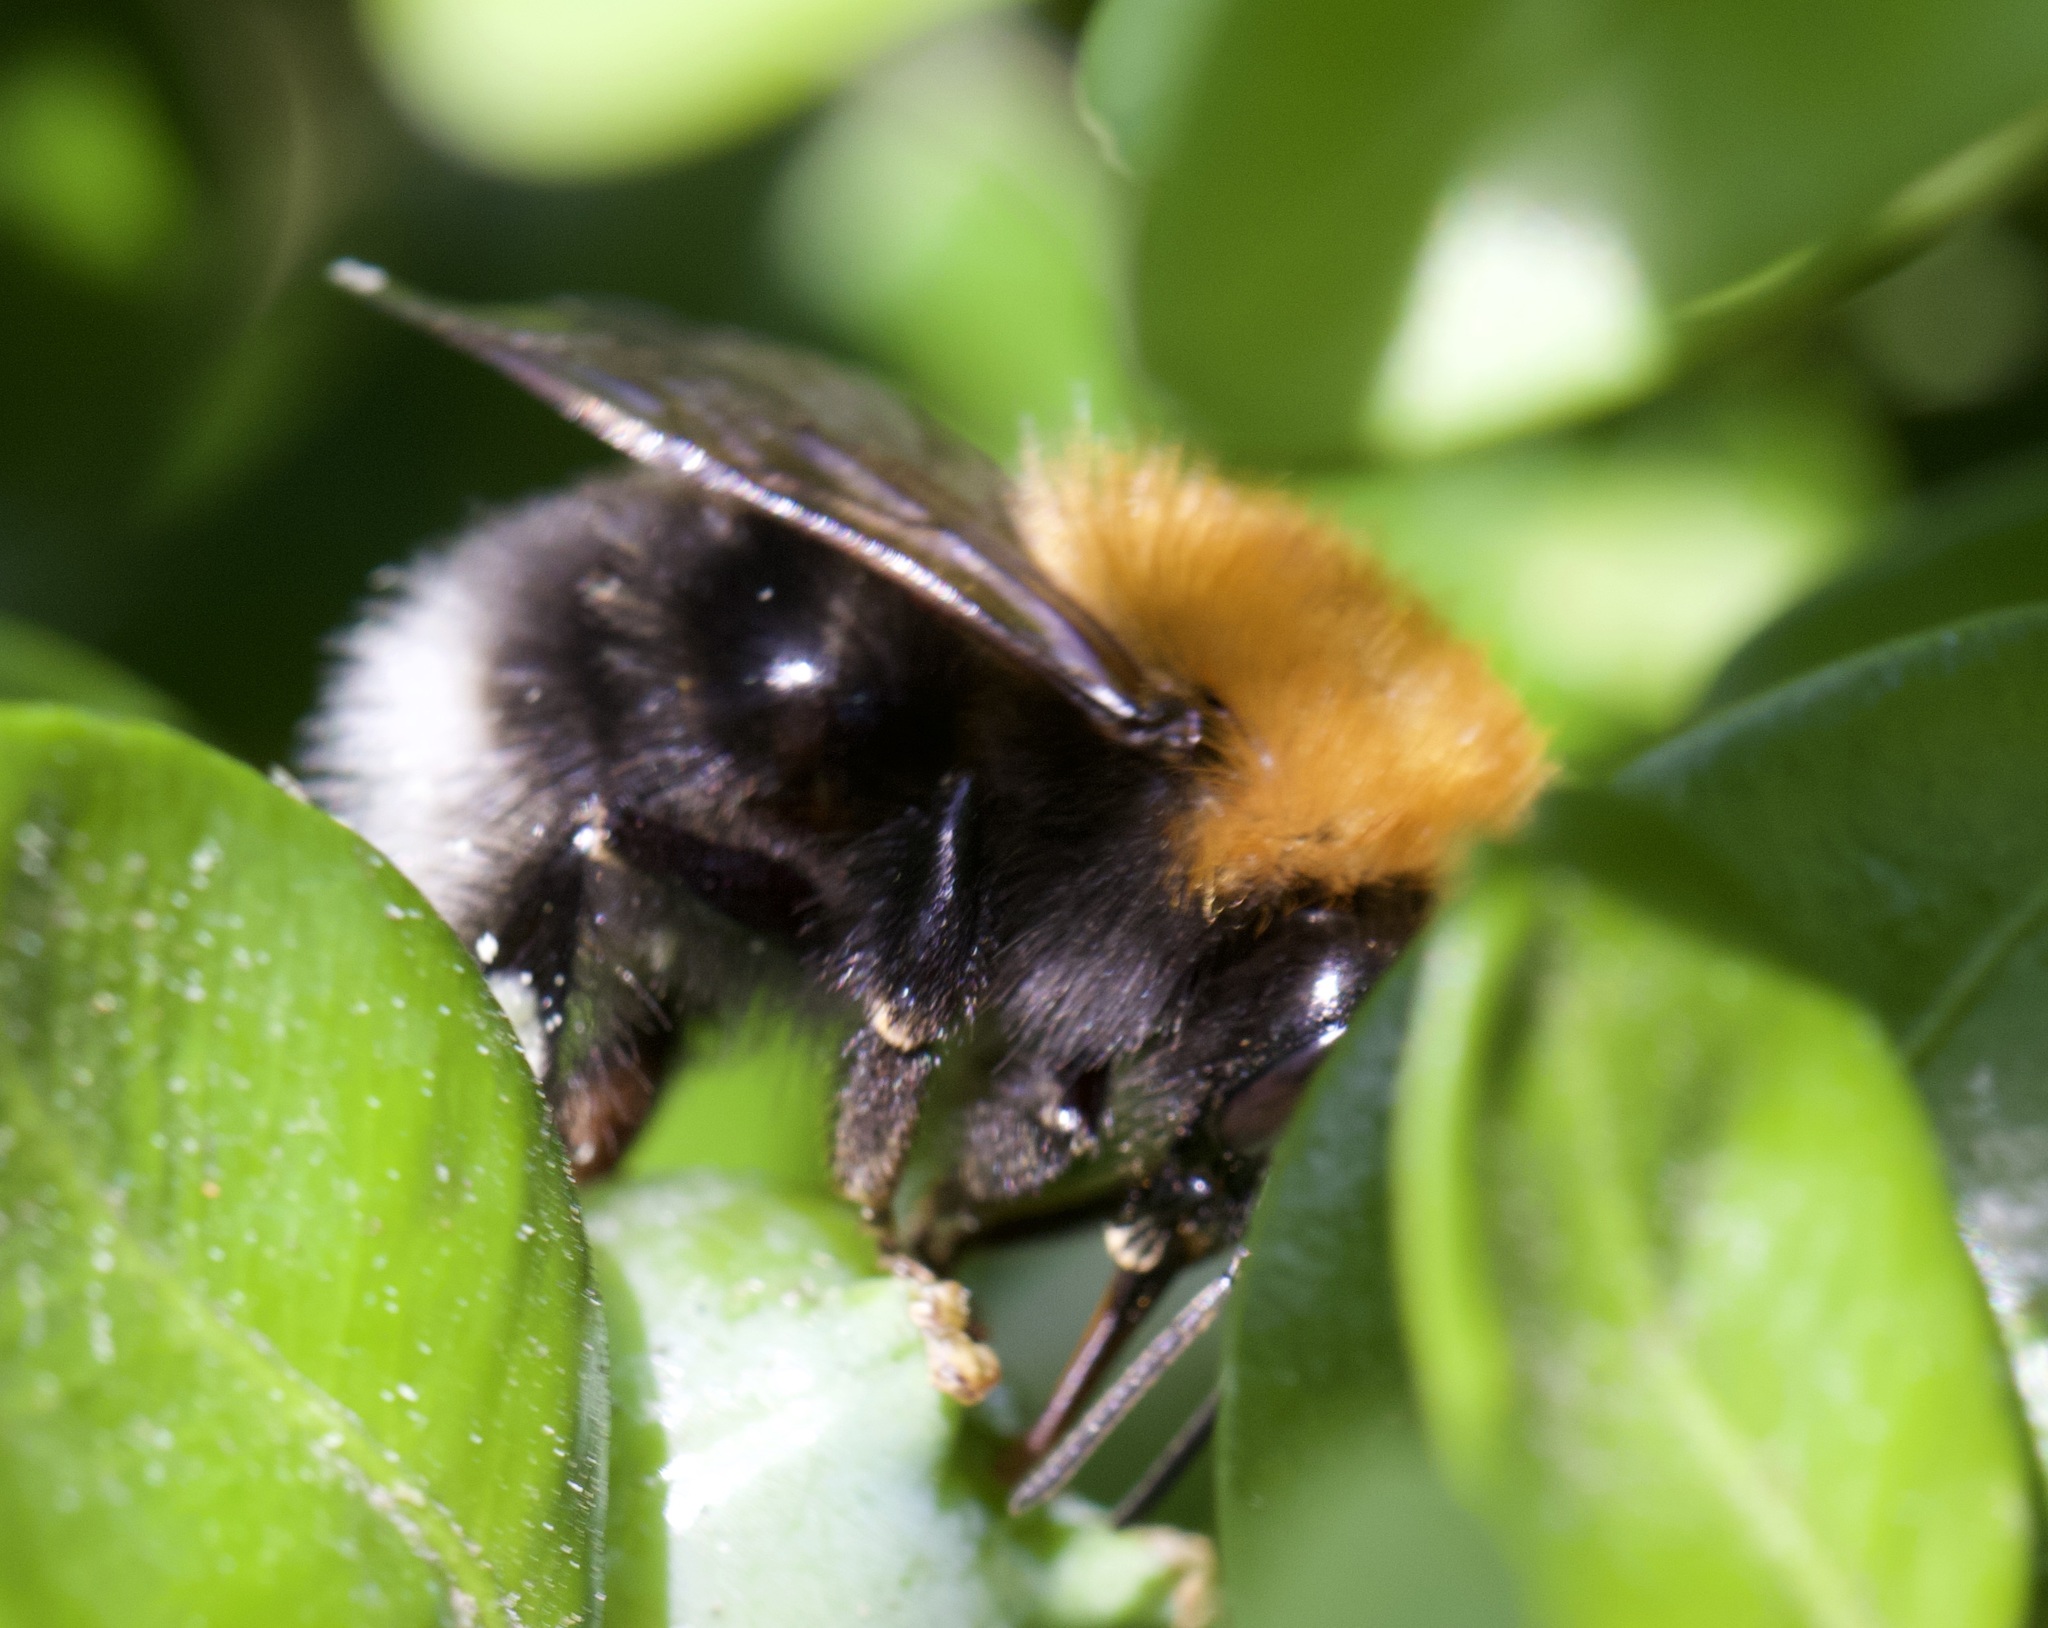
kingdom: Animalia
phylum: Arthropoda
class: Insecta
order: Hymenoptera
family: Apidae
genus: Bombus
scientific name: Bombus hypnorum
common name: New garden bumblebee
